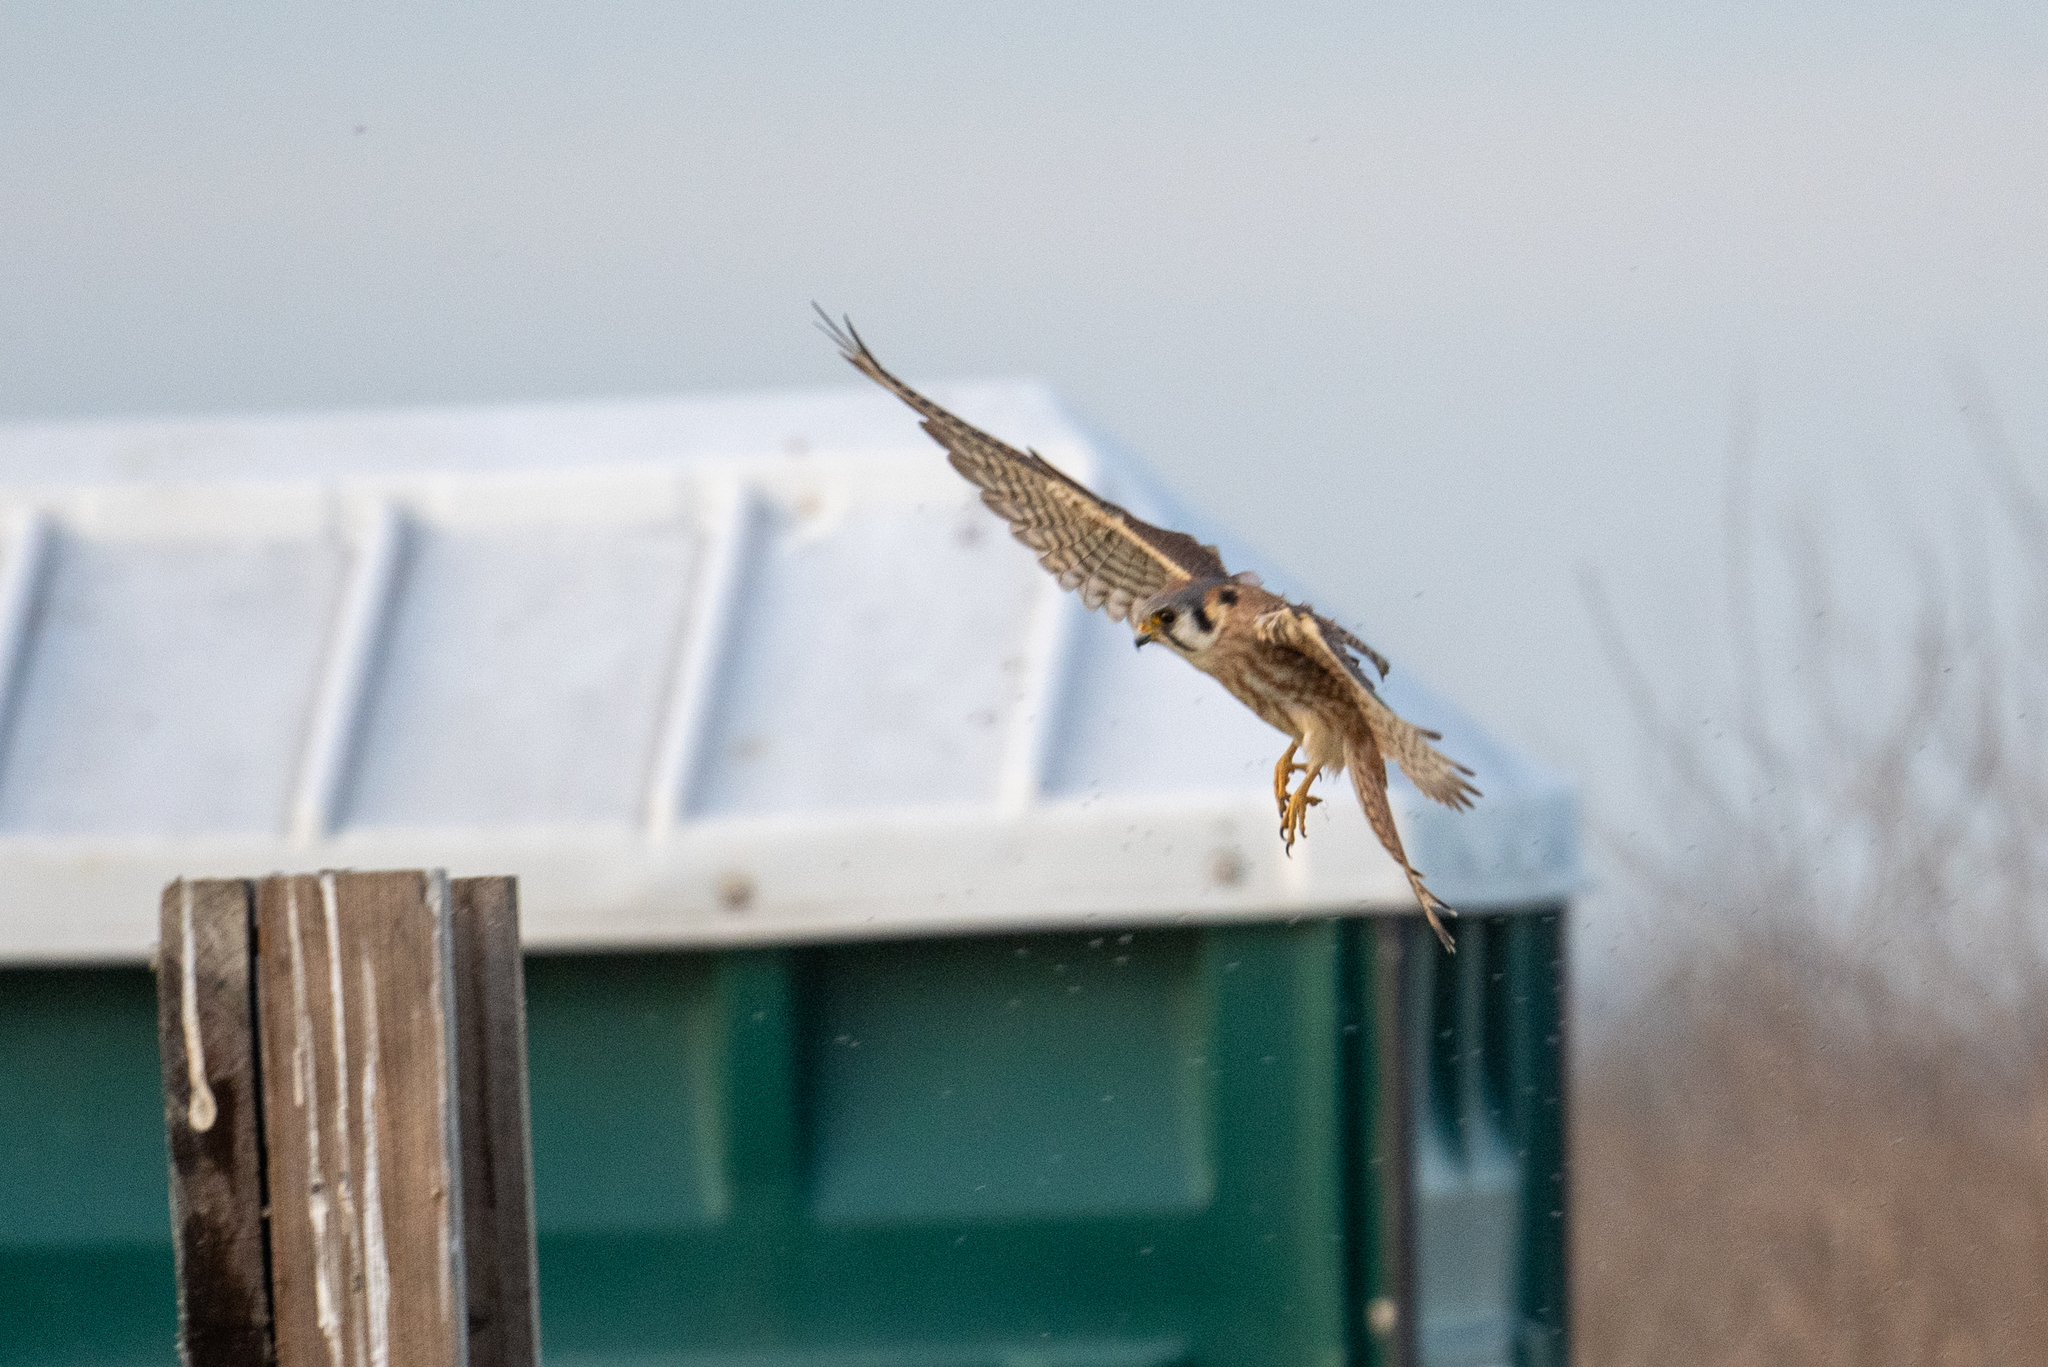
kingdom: Animalia
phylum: Chordata
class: Aves
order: Falconiformes
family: Falconidae
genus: Falco
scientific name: Falco sparverius
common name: American kestrel
